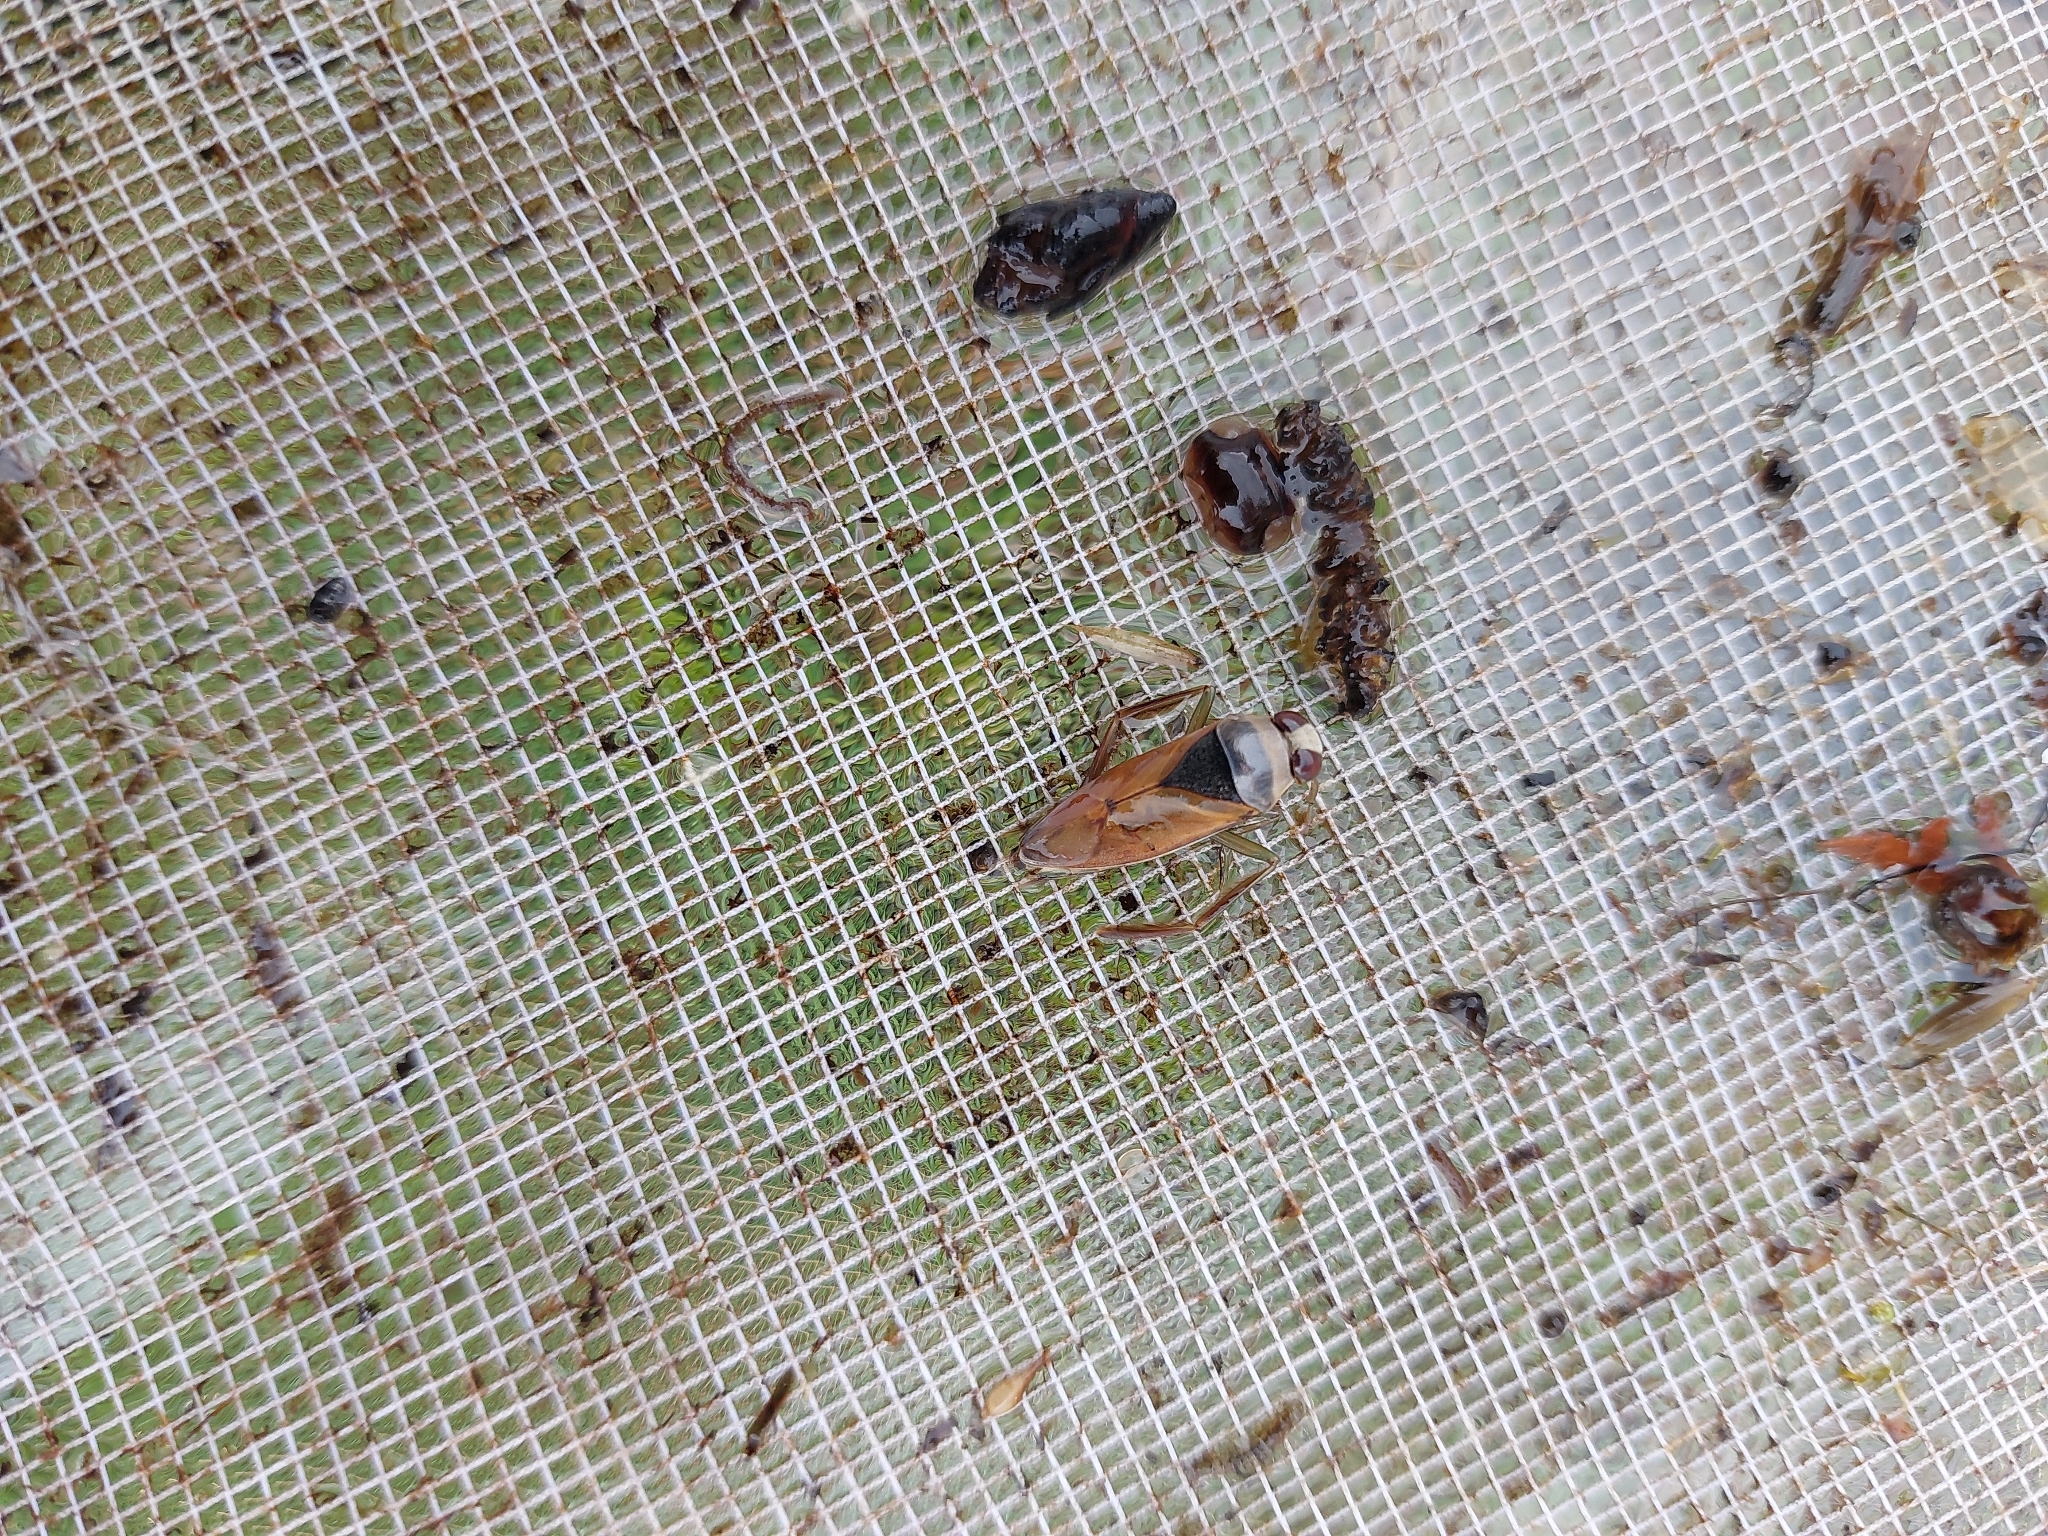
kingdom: Animalia
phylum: Arthropoda
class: Insecta
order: Hemiptera
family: Notonectidae
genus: Notonecta
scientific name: Notonecta glauca
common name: Common water-boatman
